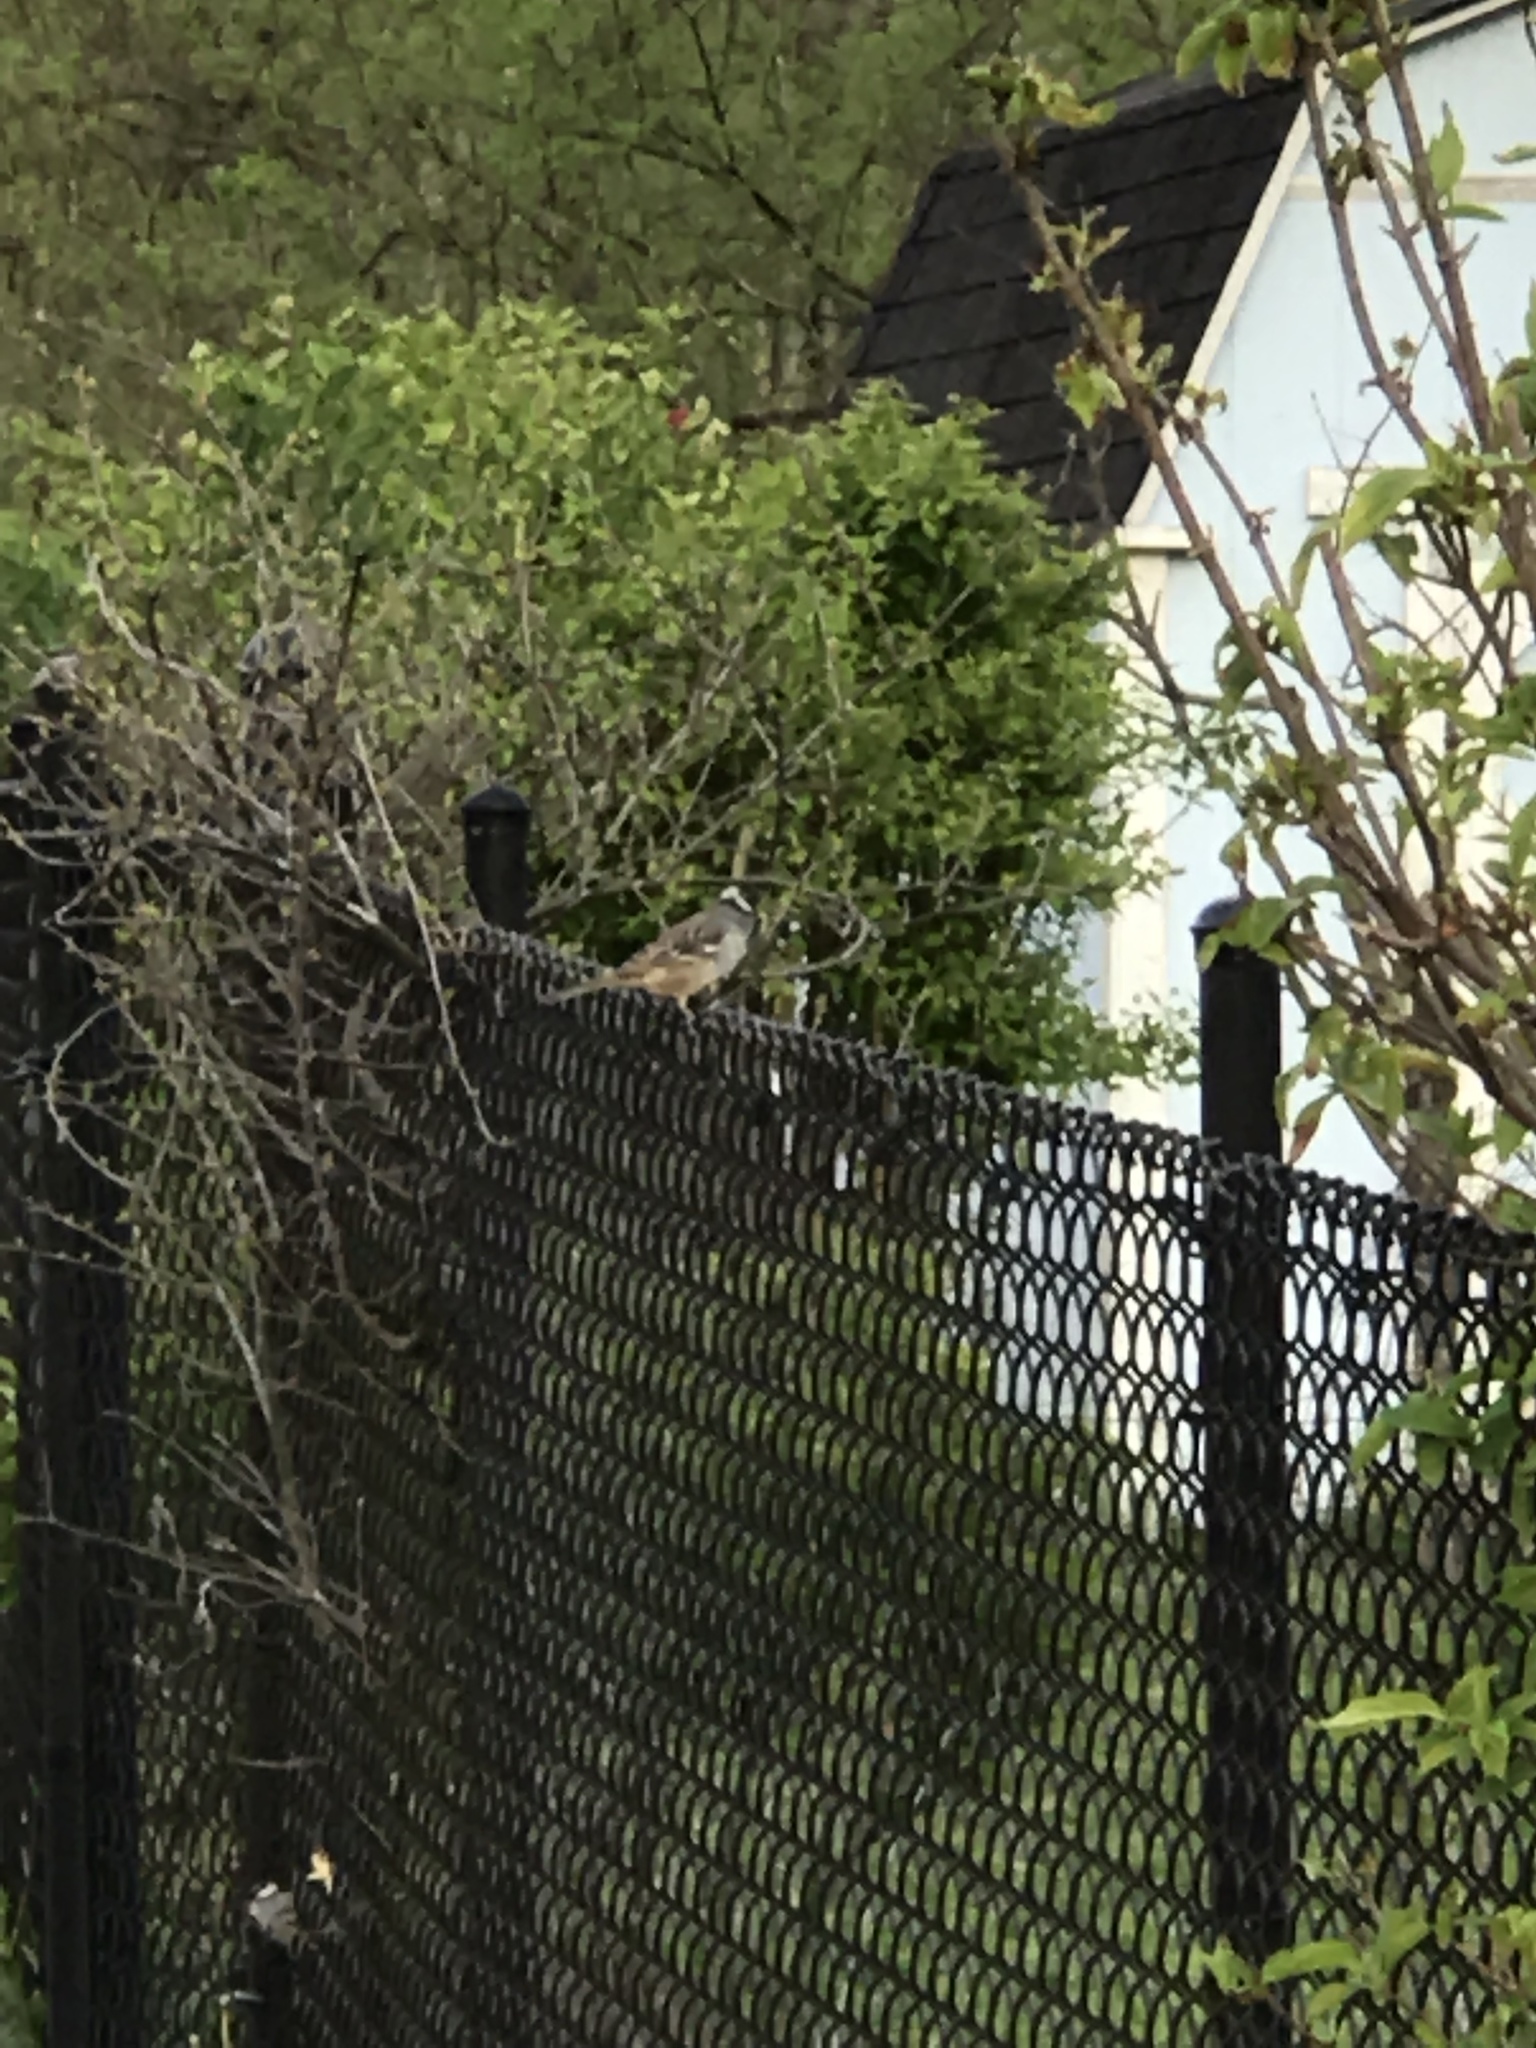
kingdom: Animalia
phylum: Chordata
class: Aves
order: Passeriformes
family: Passerellidae
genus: Zonotrichia
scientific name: Zonotrichia leucophrys
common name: White-crowned sparrow
